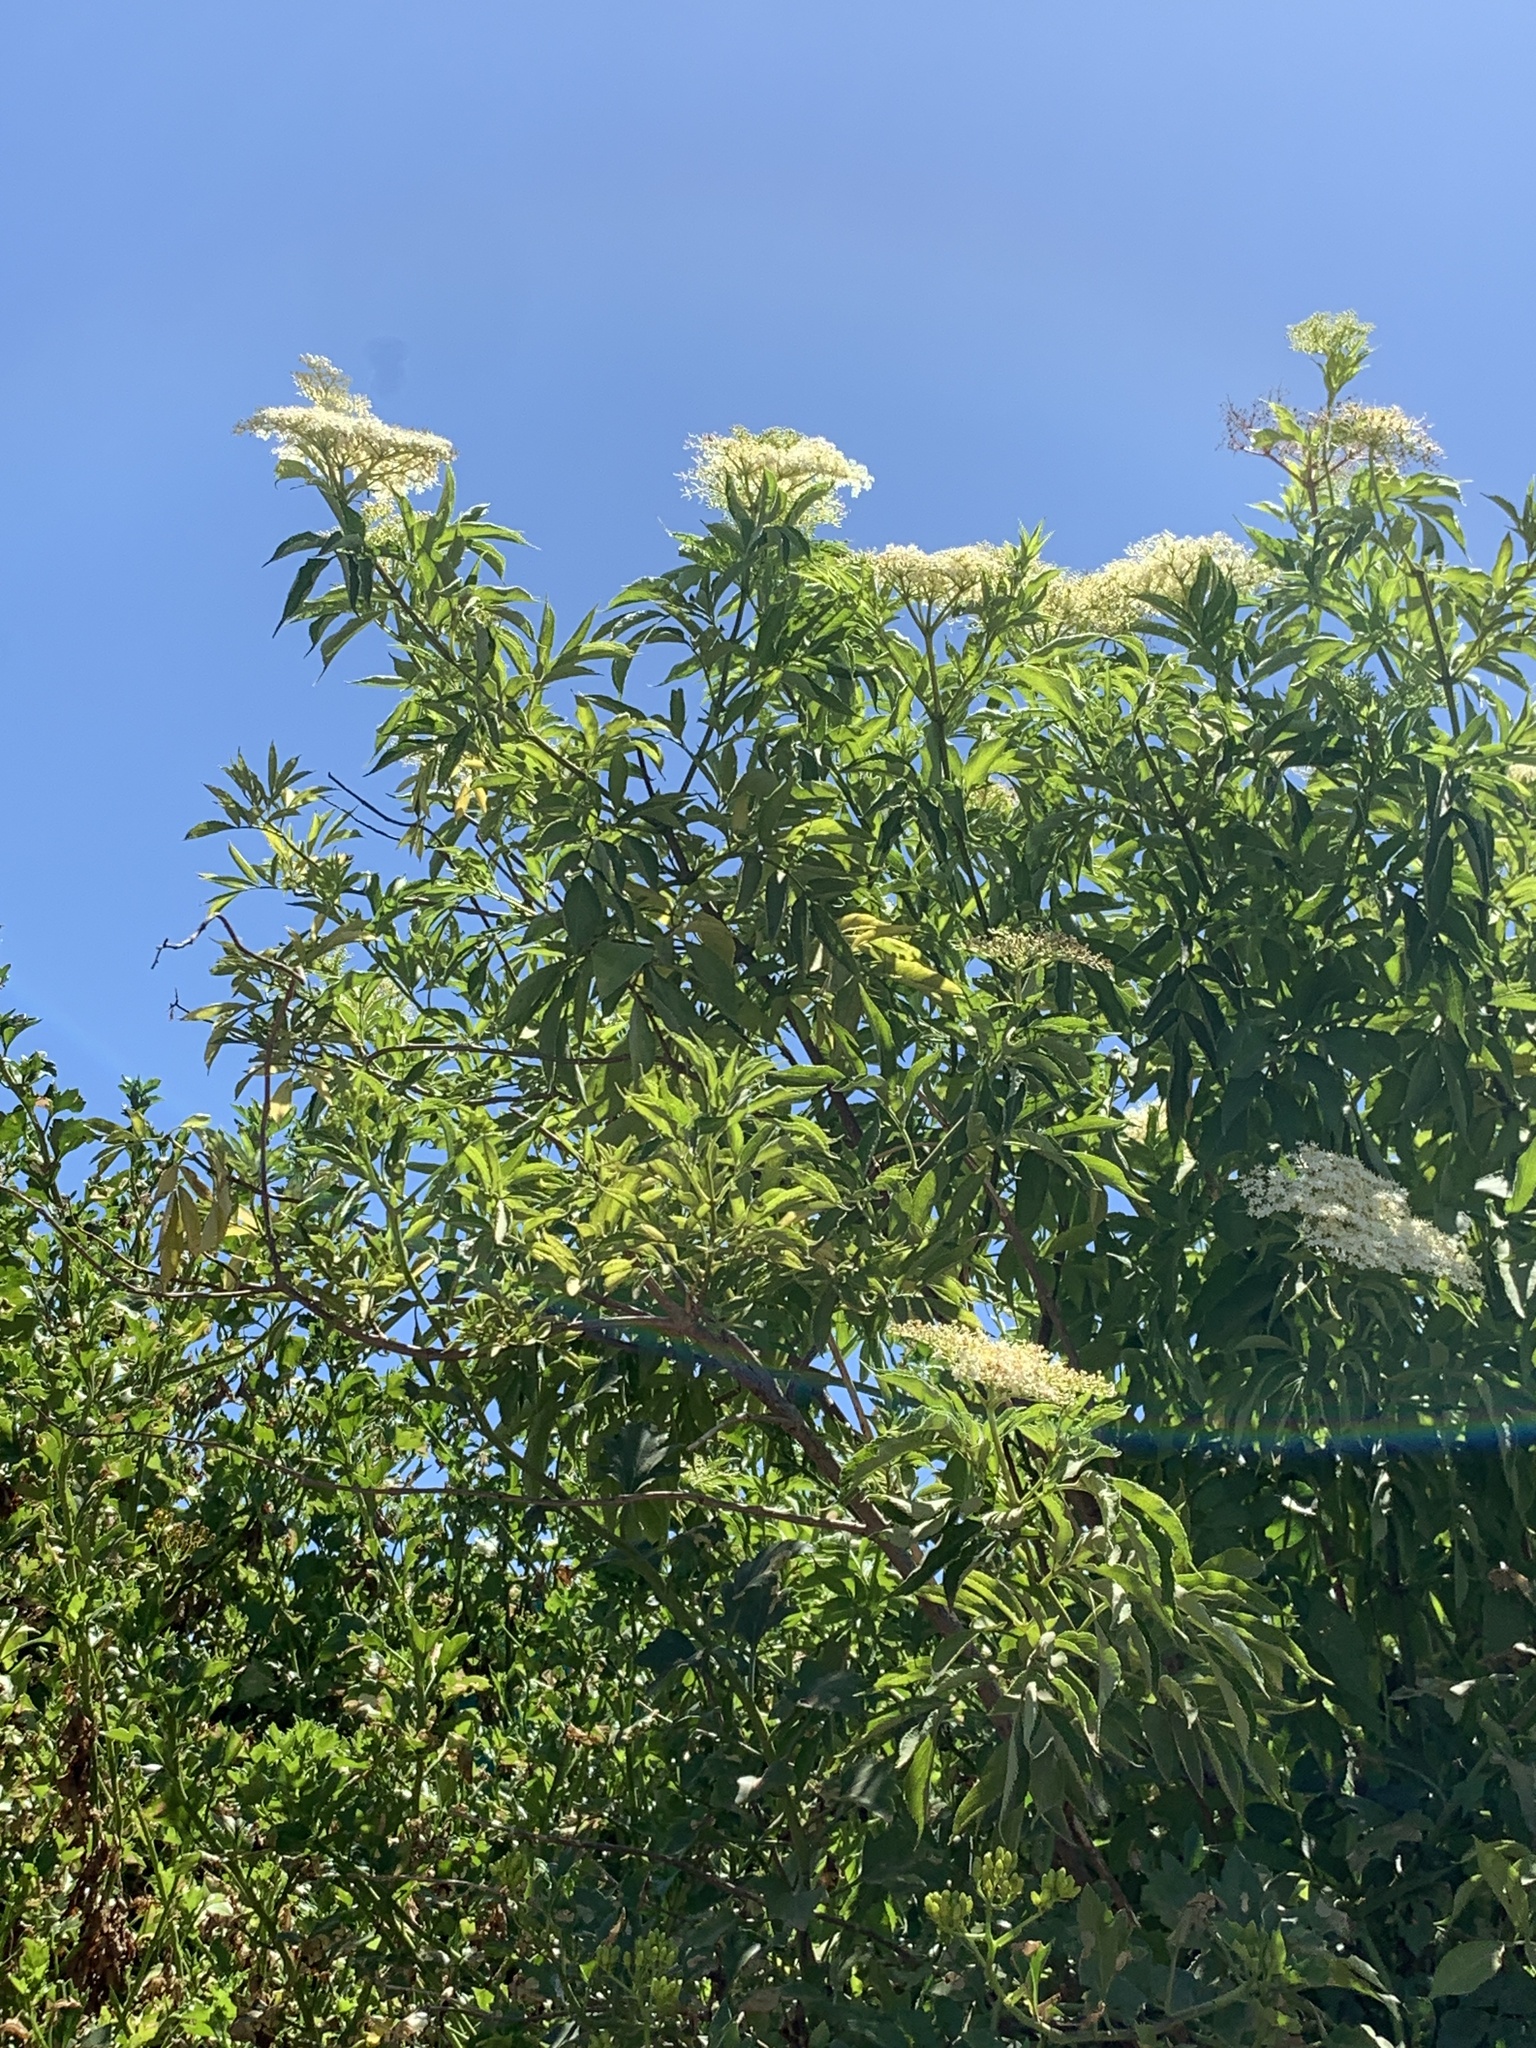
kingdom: Plantae
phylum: Tracheophyta
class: Magnoliopsida
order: Dipsacales
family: Viburnaceae
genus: Sambucus
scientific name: Sambucus nigra
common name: Elder
